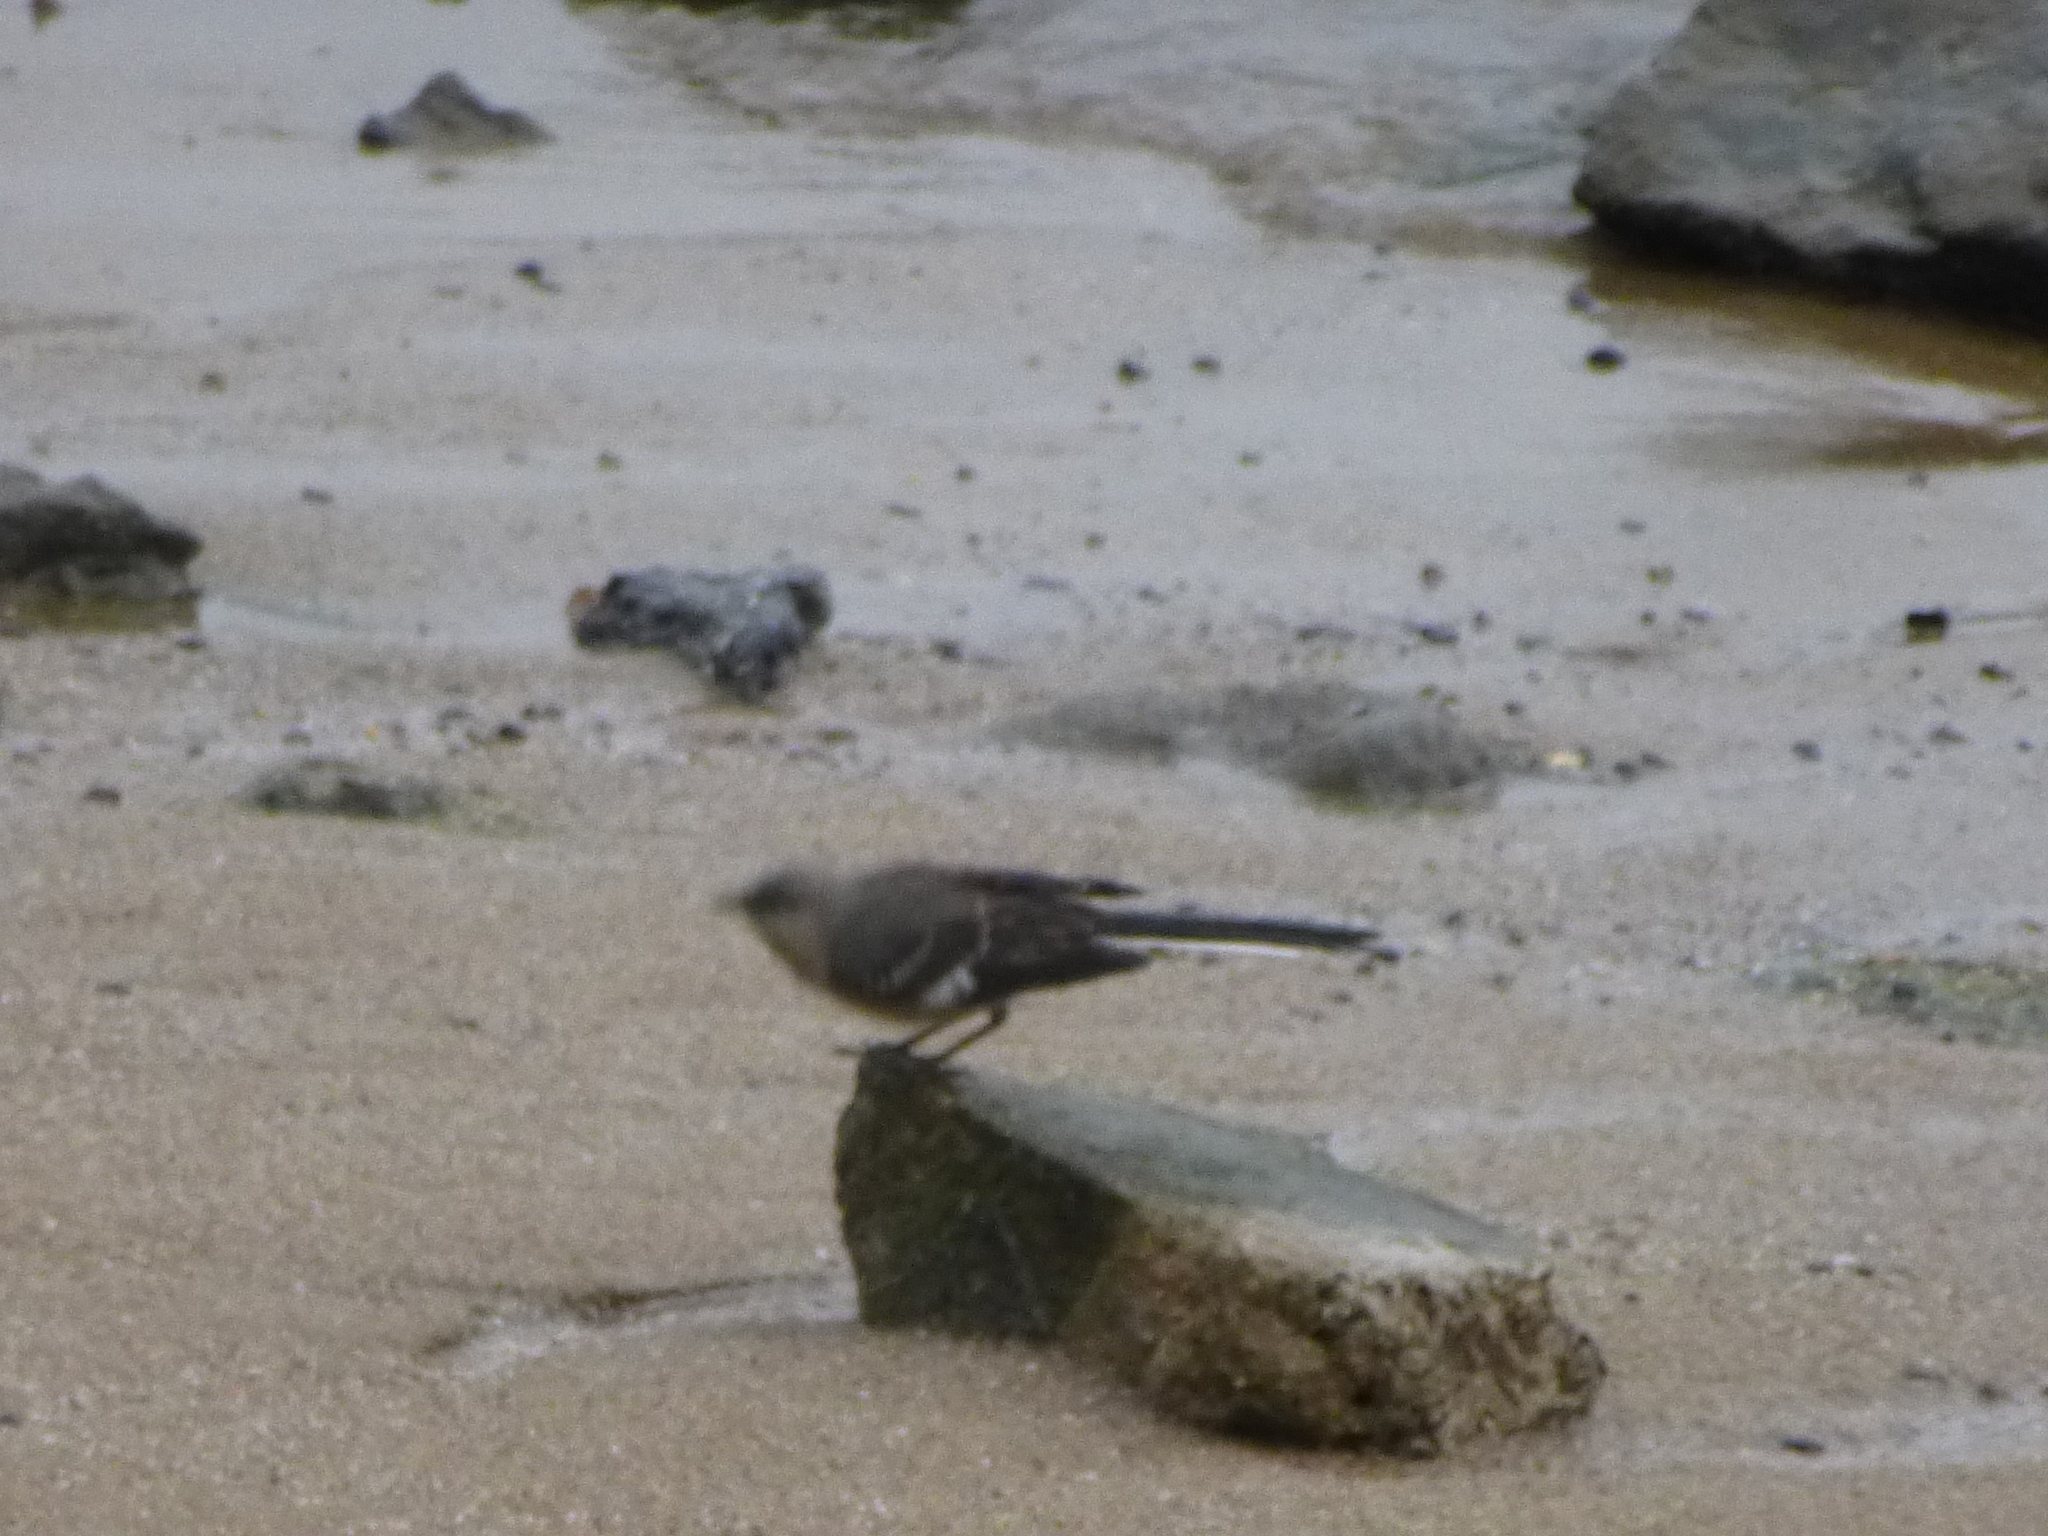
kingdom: Animalia
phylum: Chordata
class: Aves
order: Passeriformes
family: Mimidae
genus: Mimus
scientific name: Mimus polyglottos
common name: Northern mockingbird
